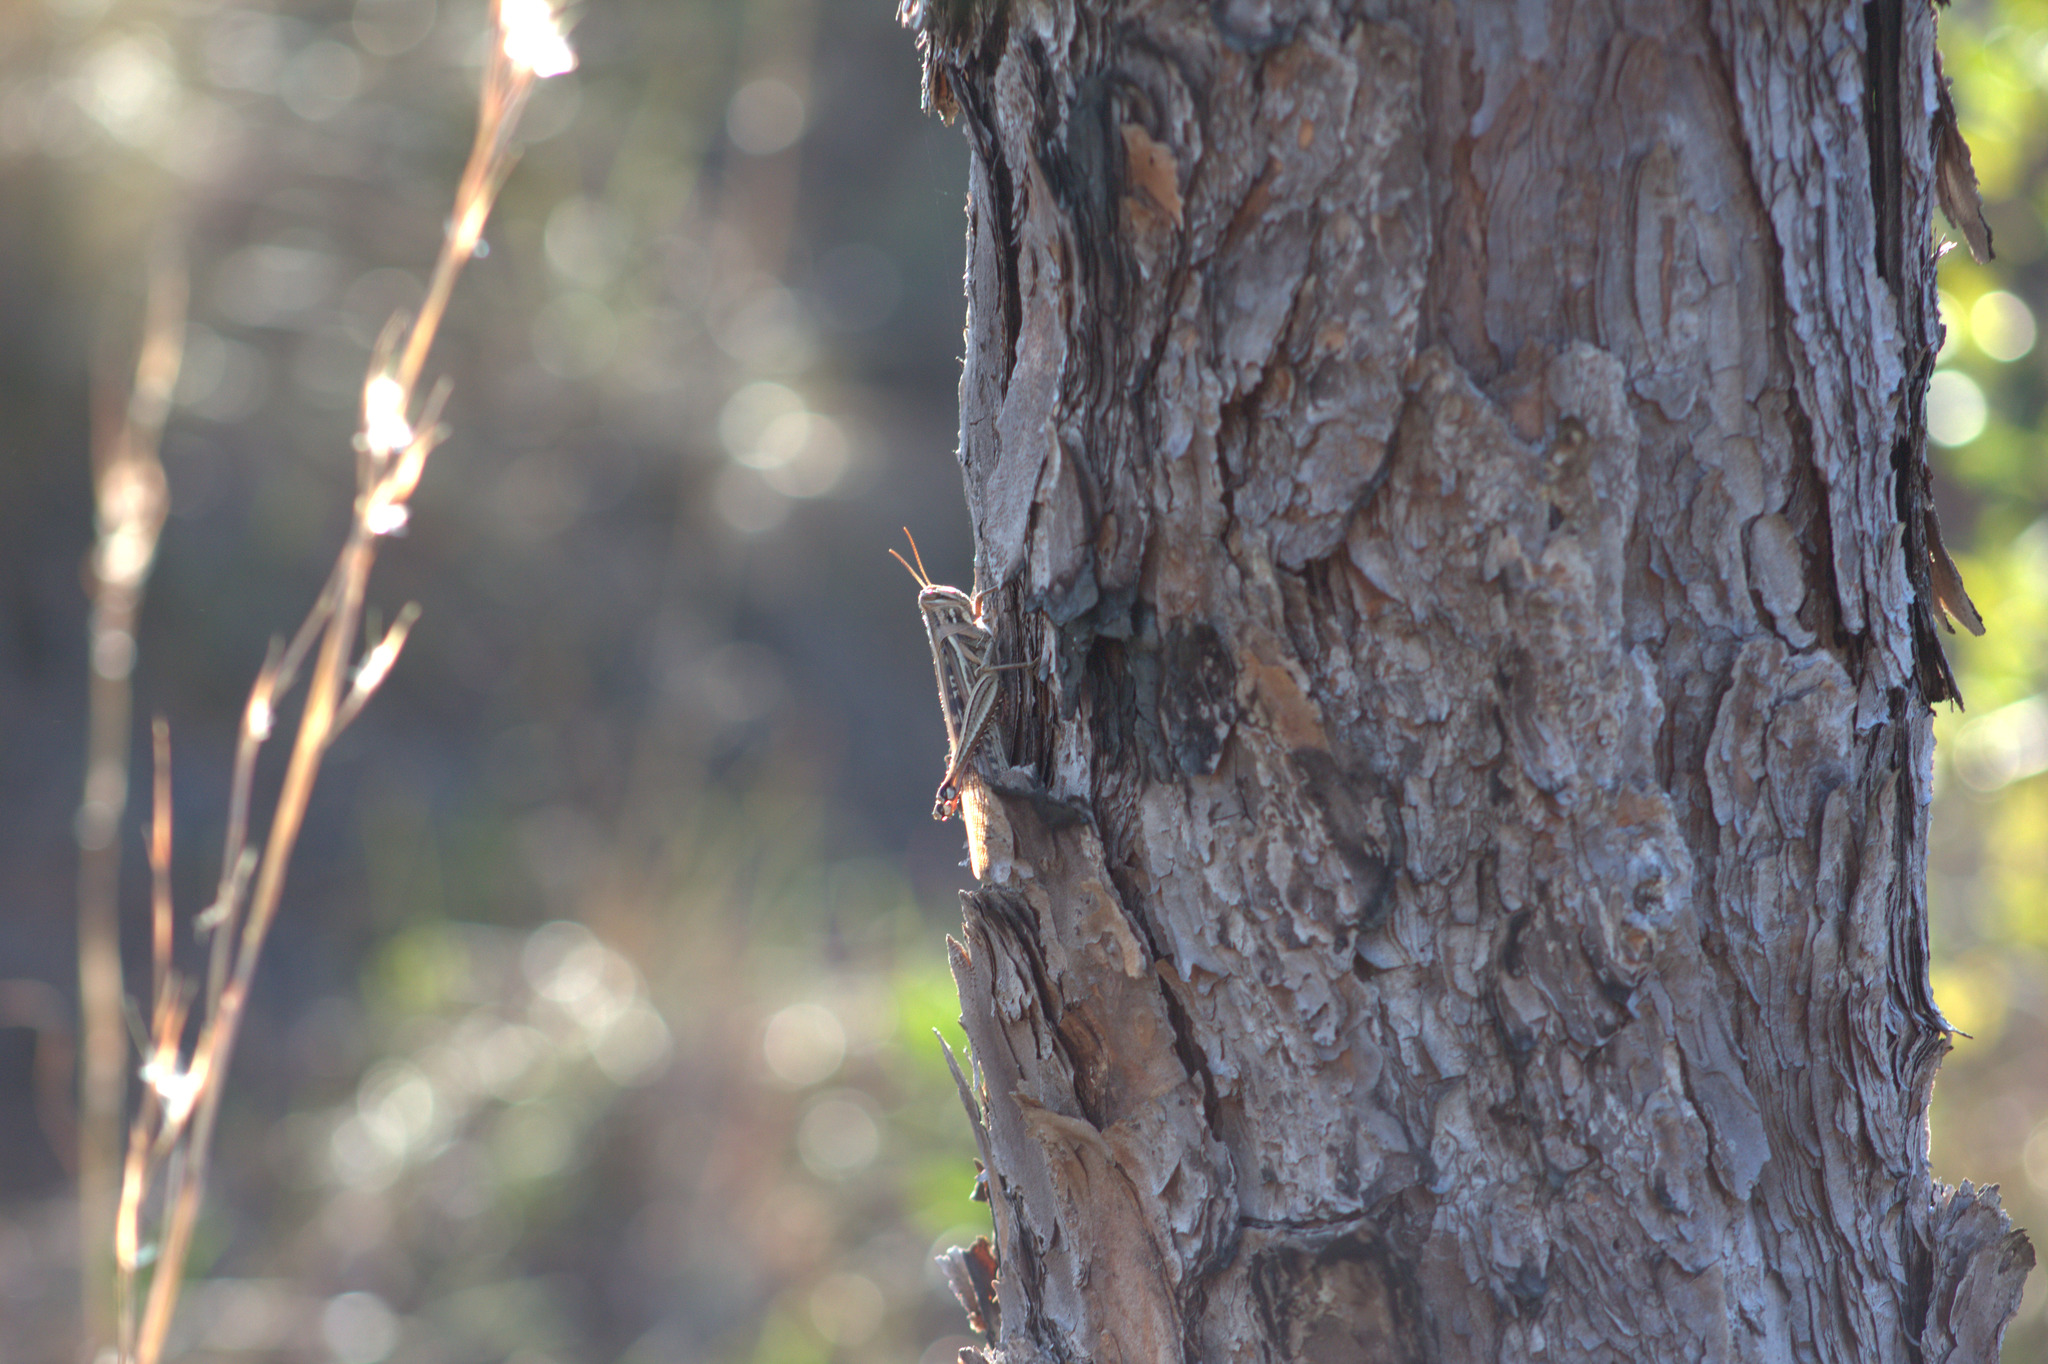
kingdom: Animalia
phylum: Arthropoda
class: Insecta
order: Orthoptera
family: Acrididae
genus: Schistocerca
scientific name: Schistocerca americana
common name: American bird locust
